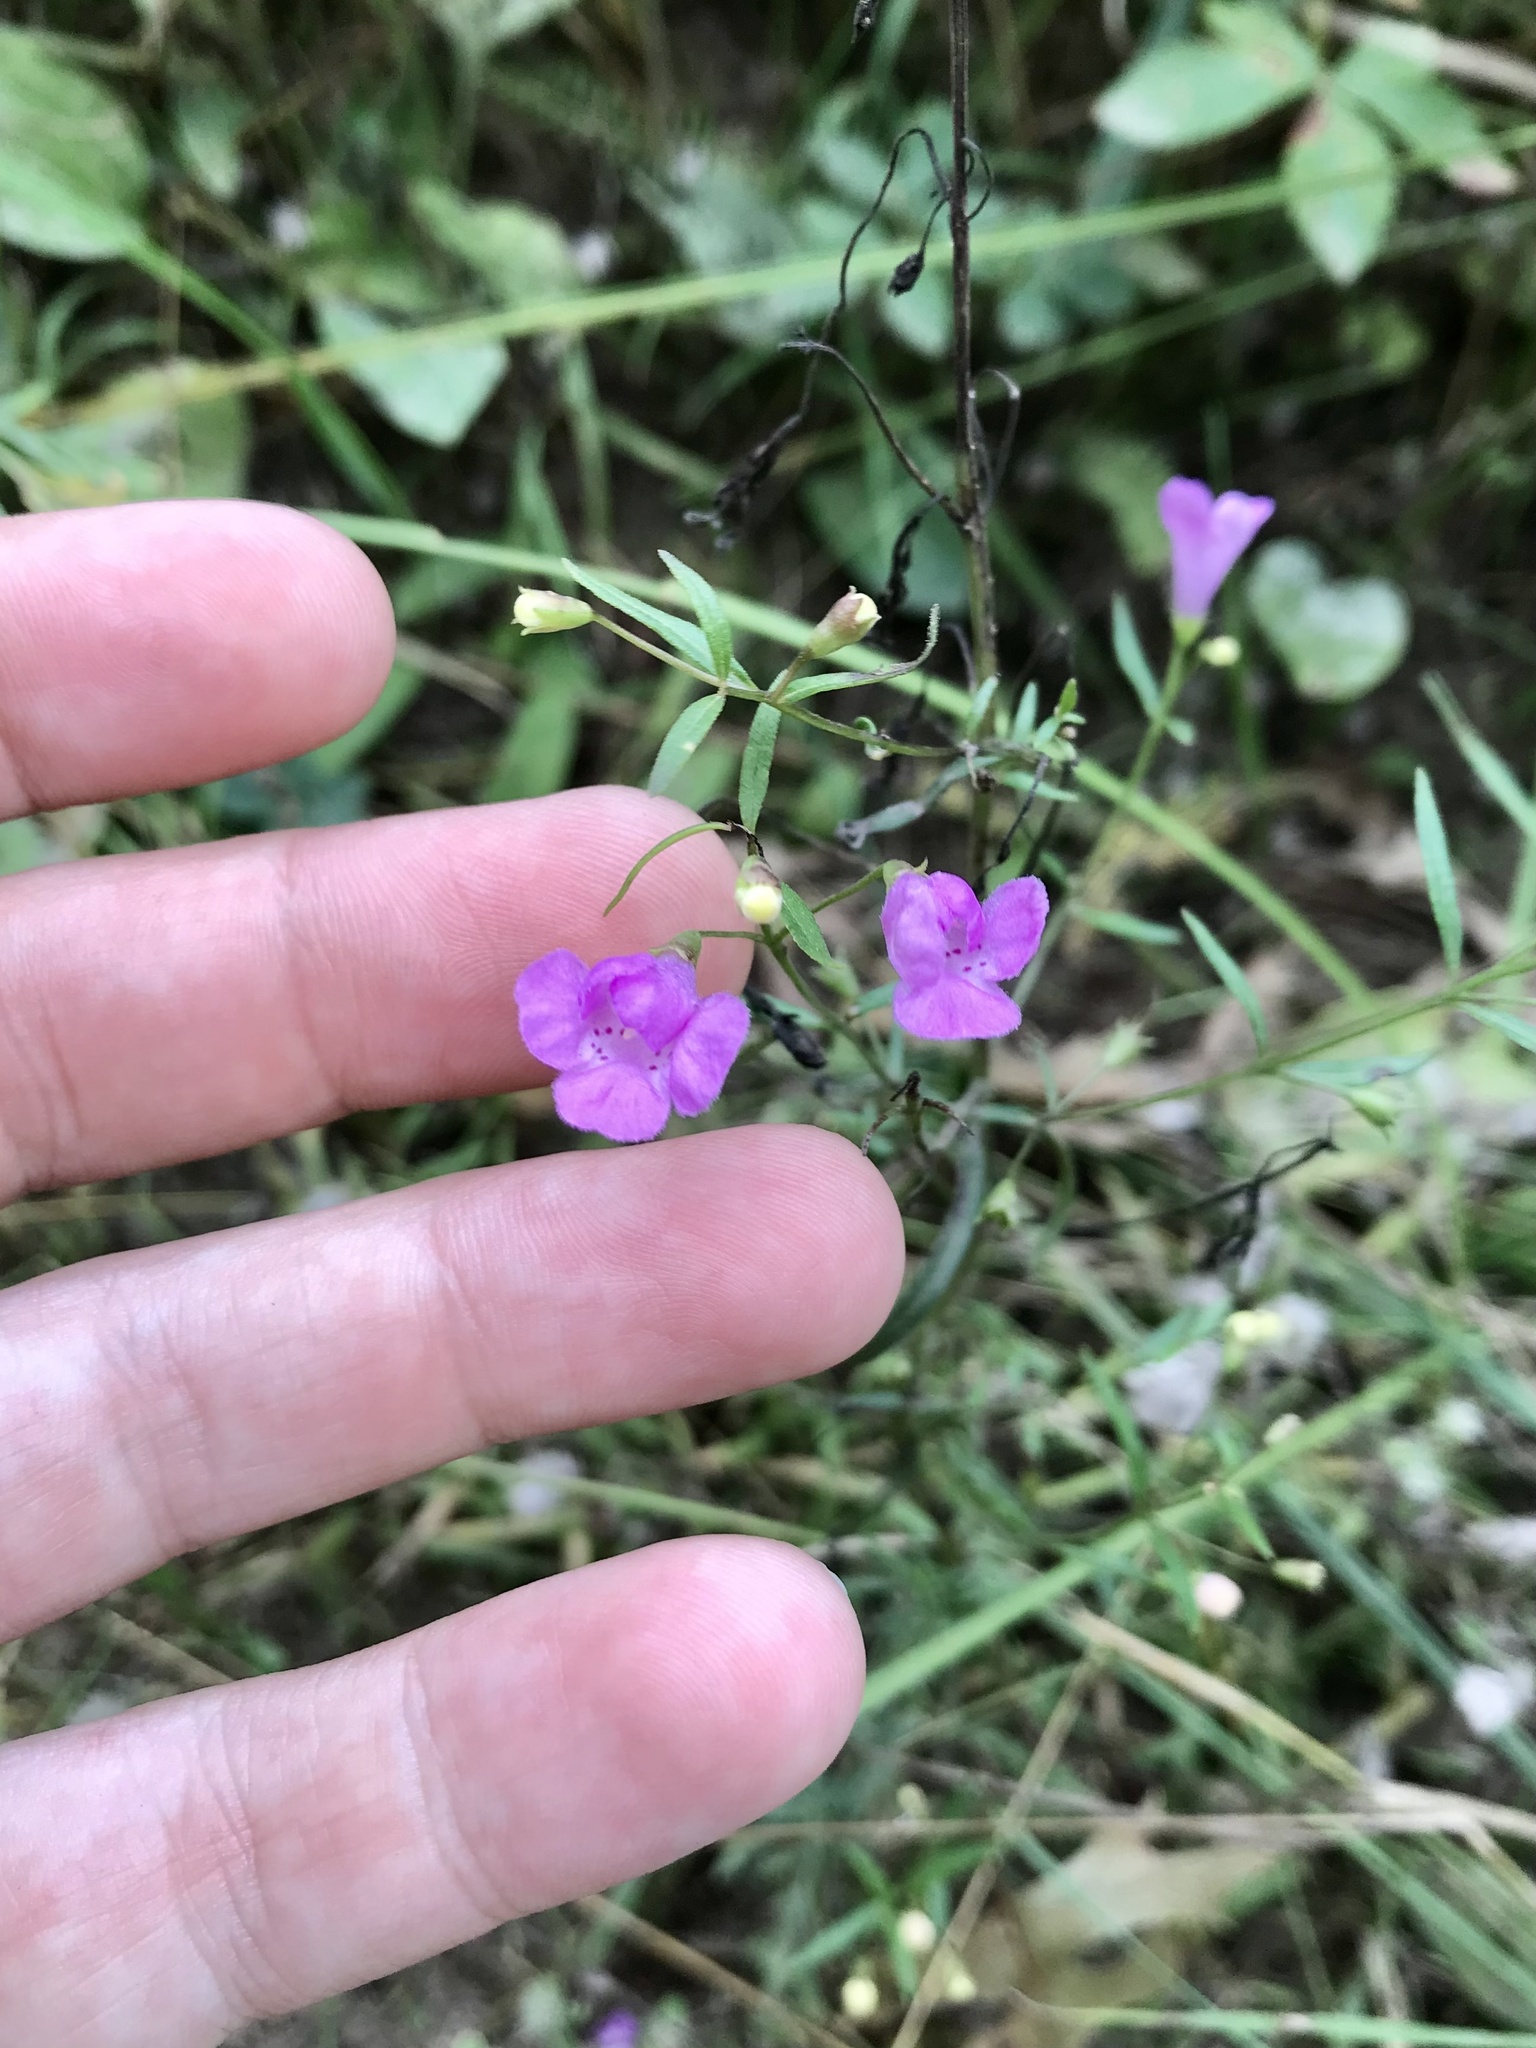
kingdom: Plantae
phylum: Tracheophyta
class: Magnoliopsida
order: Lamiales
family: Orobanchaceae
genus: Agalinis
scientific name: Agalinis tenuifolia
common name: Slender agalinis
